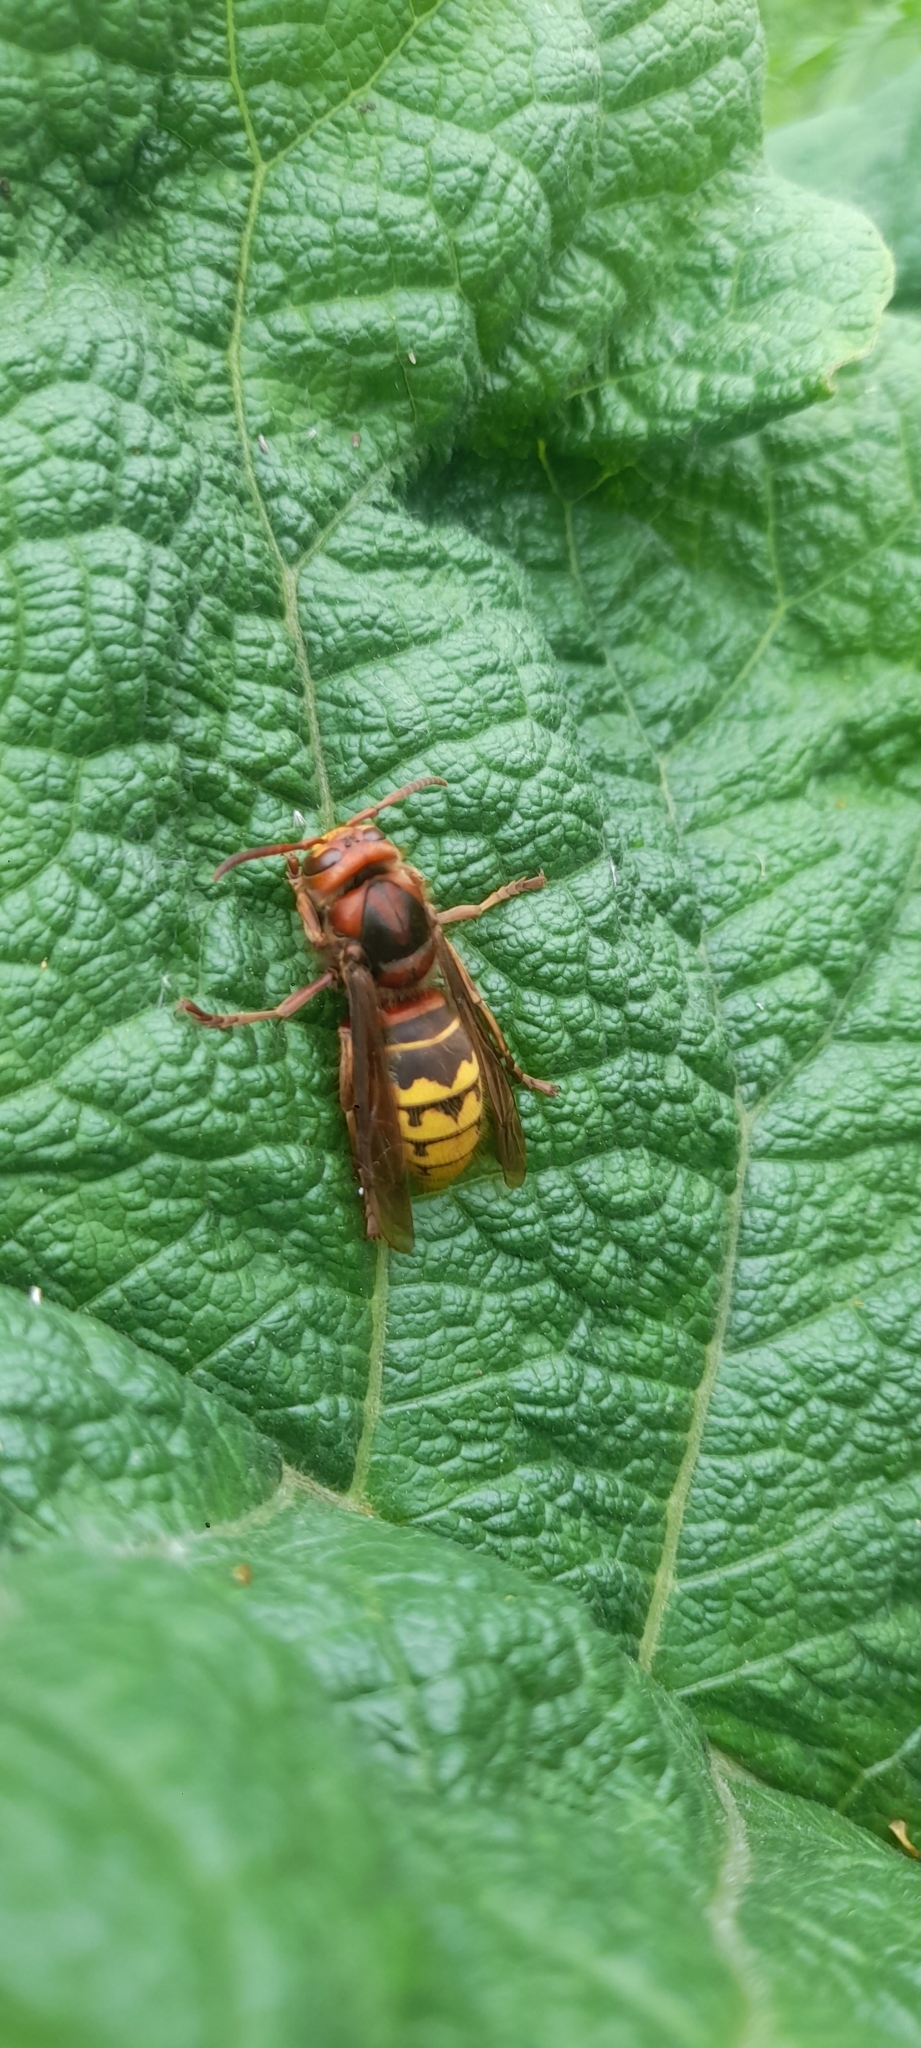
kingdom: Animalia
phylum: Arthropoda
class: Insecta
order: Hymenoptera
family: Vespidae
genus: Vespa
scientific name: Vespa crabro
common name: Hornet
